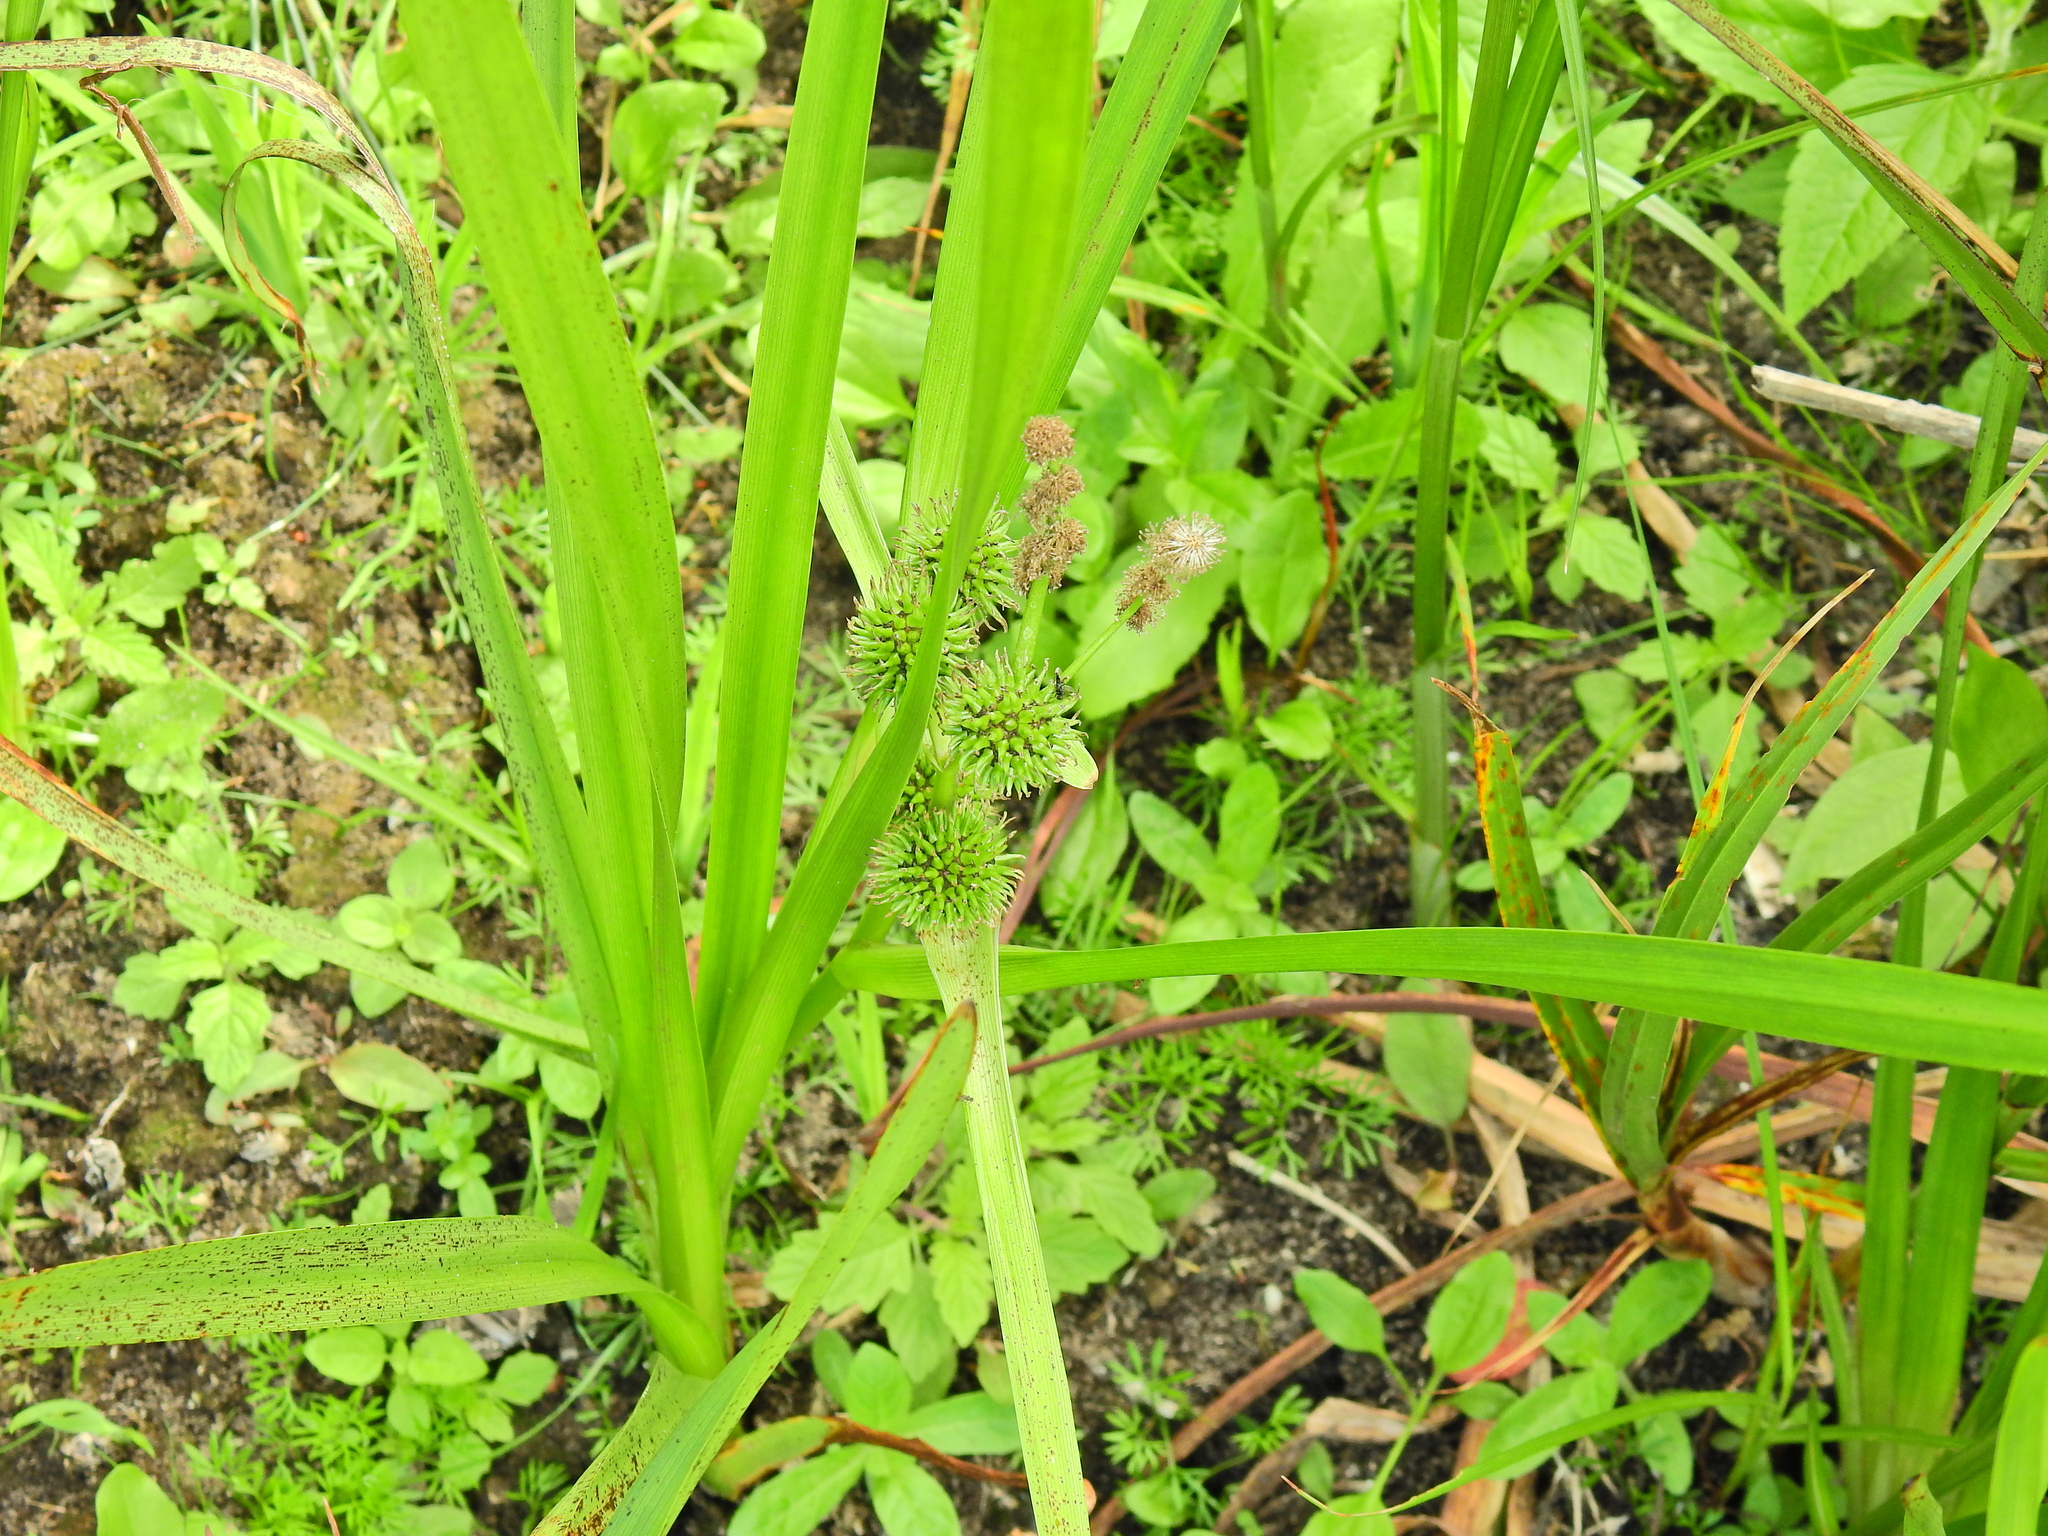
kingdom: Plantae
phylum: Tracheophyta
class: Liliopsida
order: Poales
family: Typhaceae
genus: Sparganium
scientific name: Sparganium erectum
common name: Branched bur-reed
